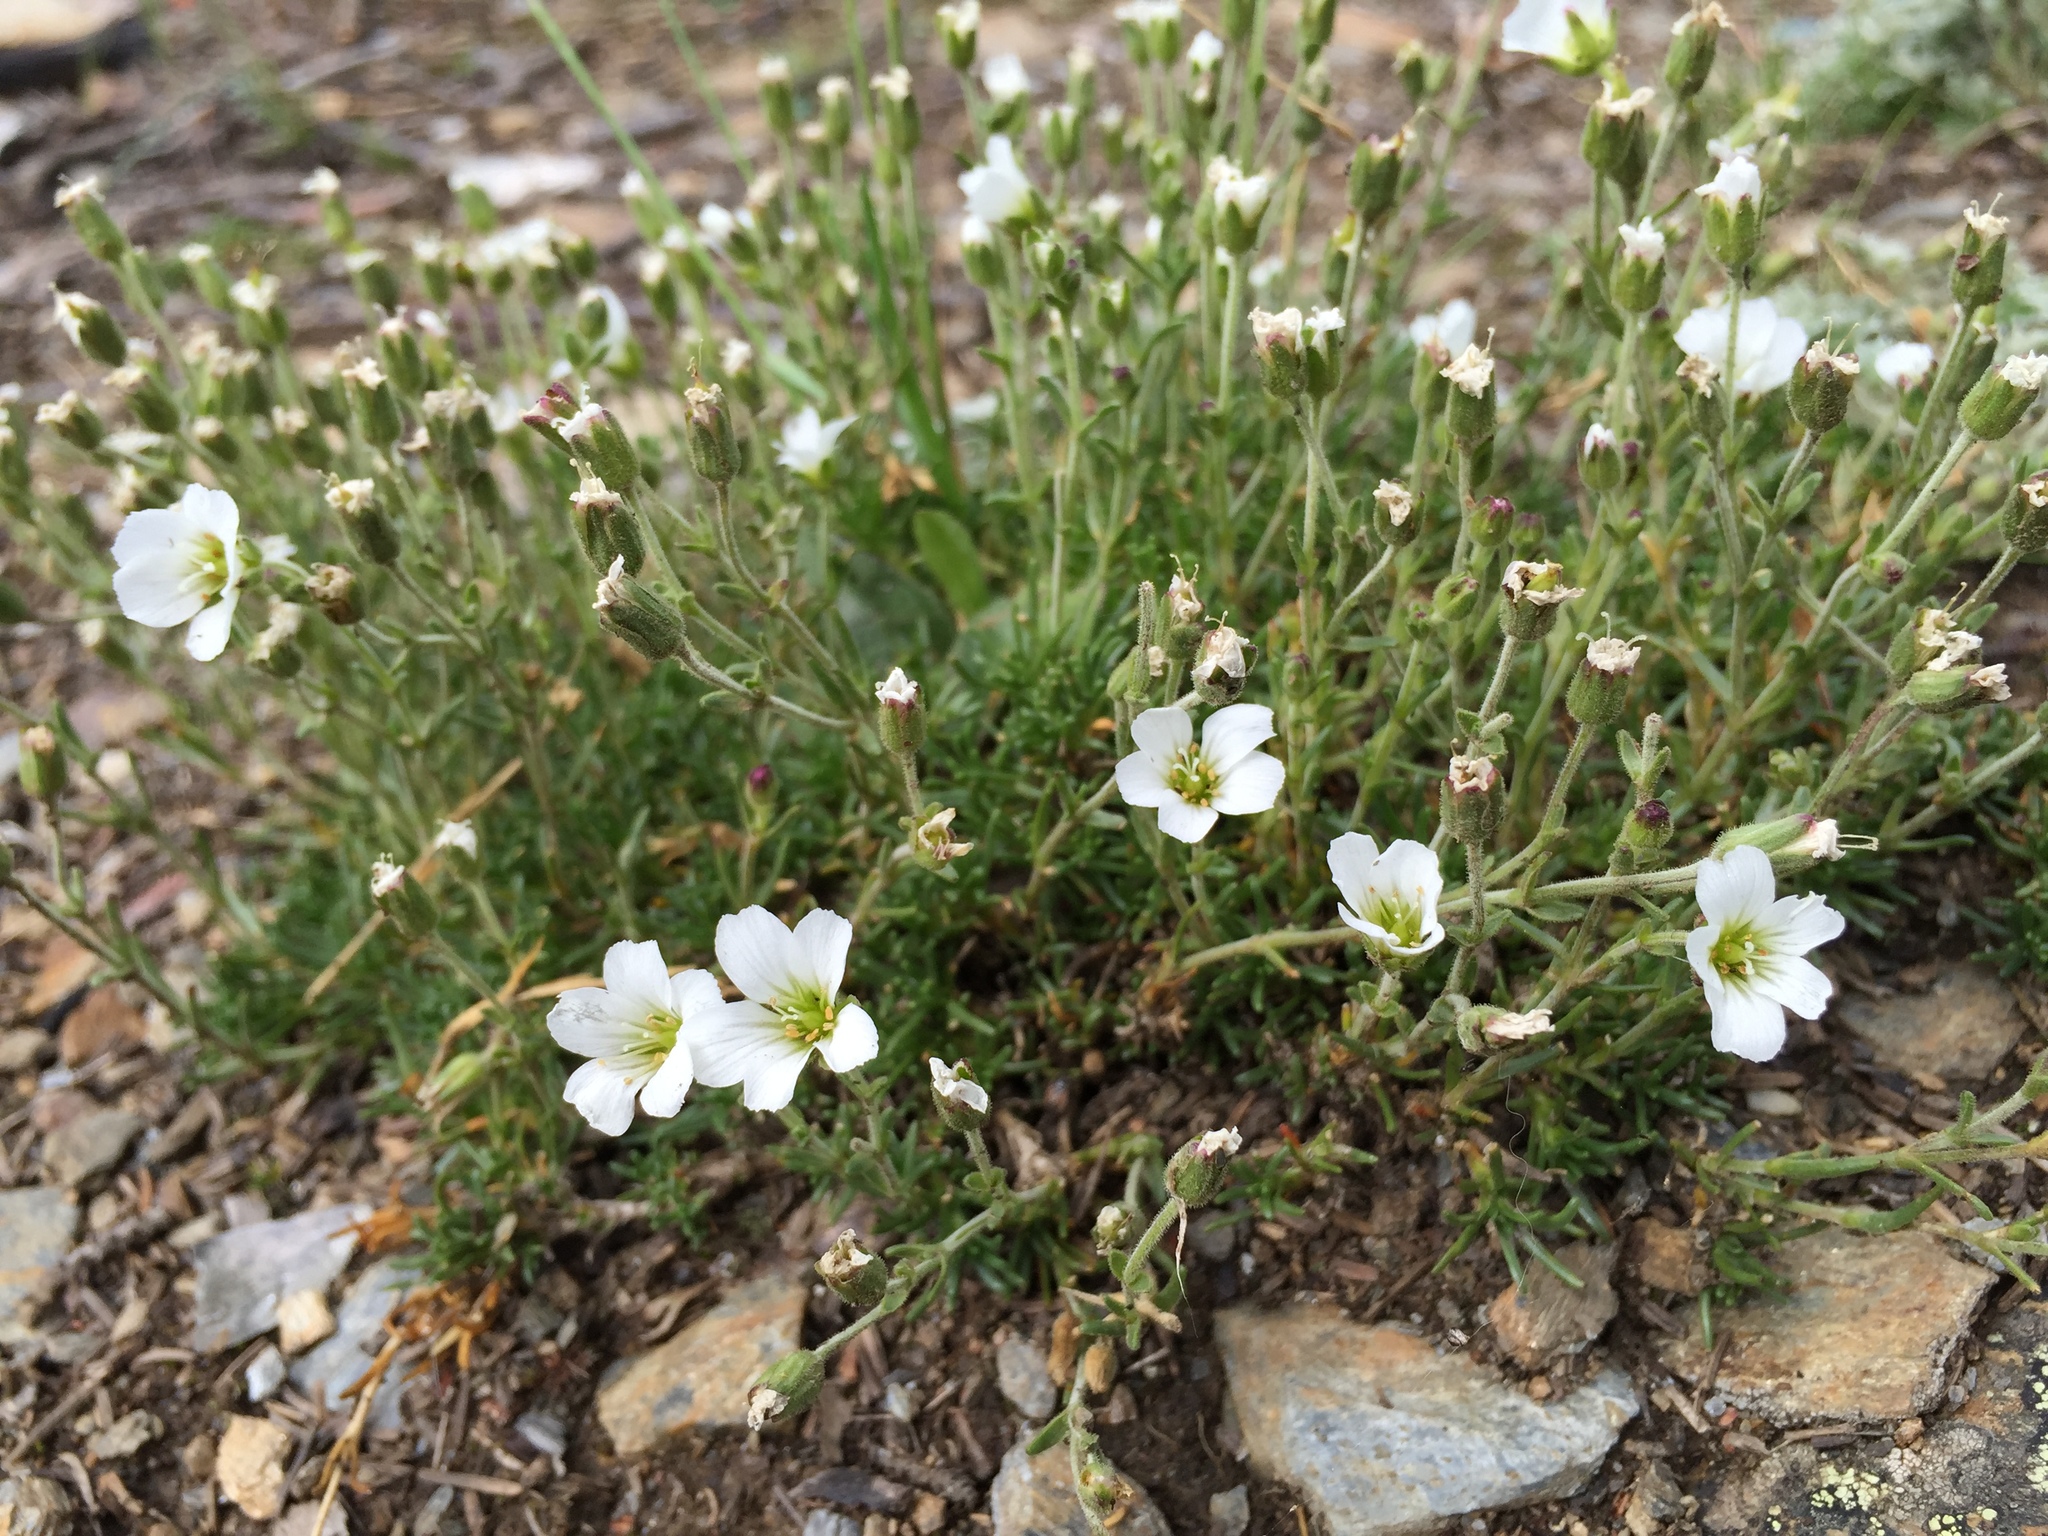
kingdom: Plantae
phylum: Tracheophyta
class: Magnoliopsida
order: Caryophyllales
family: Caryophyllaceae
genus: Cherleria
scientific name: Cherleria obtusiloba
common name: Alpine stitchwort
